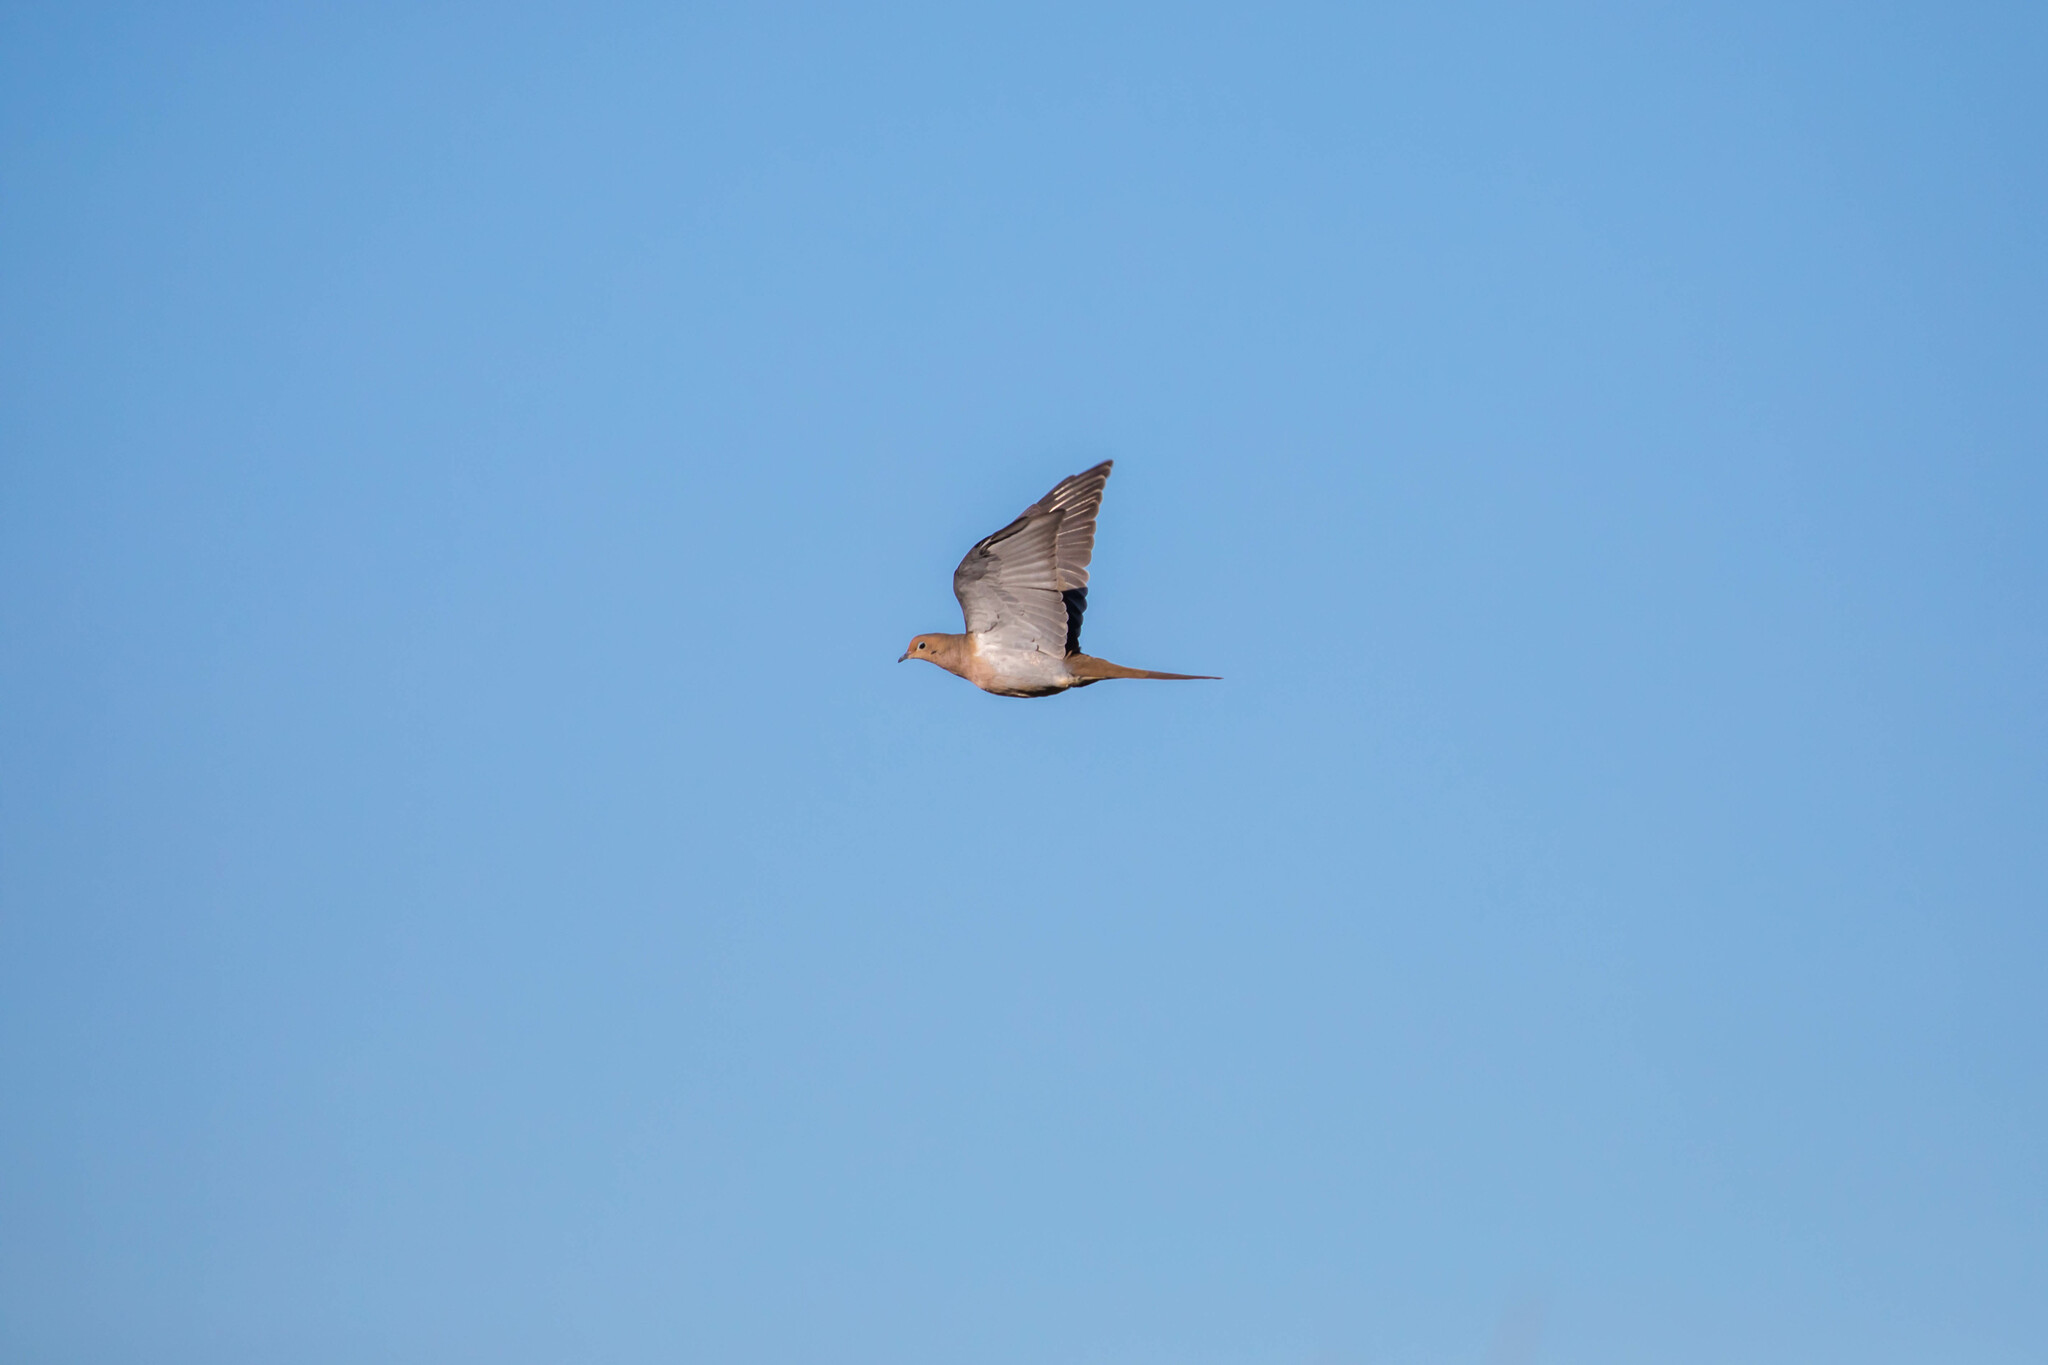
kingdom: Animalia
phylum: Chordata
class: Aves
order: Columbiformes
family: Columbidae
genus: Zenaida
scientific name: Zenaida macroura
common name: Mourning dove
